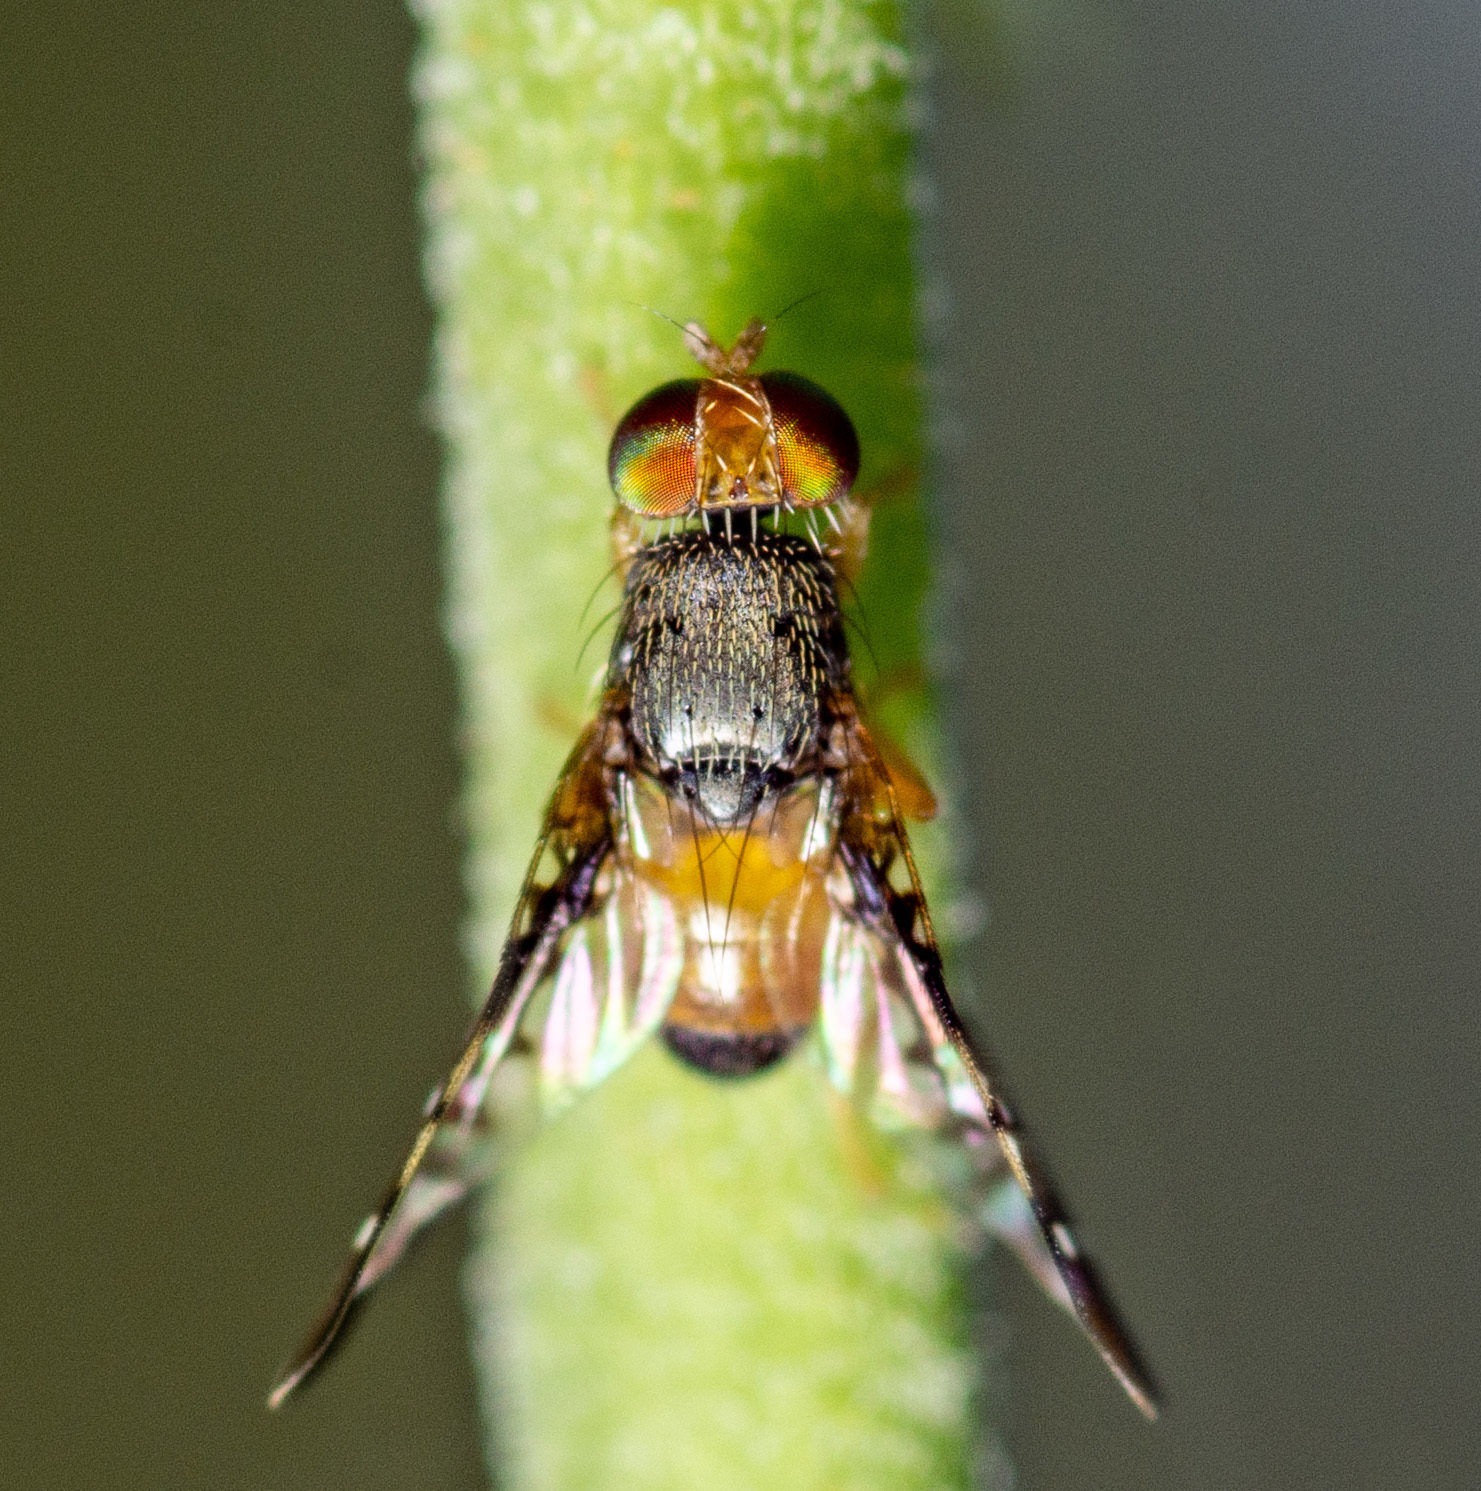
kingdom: Animalia
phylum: Arthropoda
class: Insecta
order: Diptera
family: Tephritidae
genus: Xanthaciura
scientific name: Xanthaciura tetraspina
